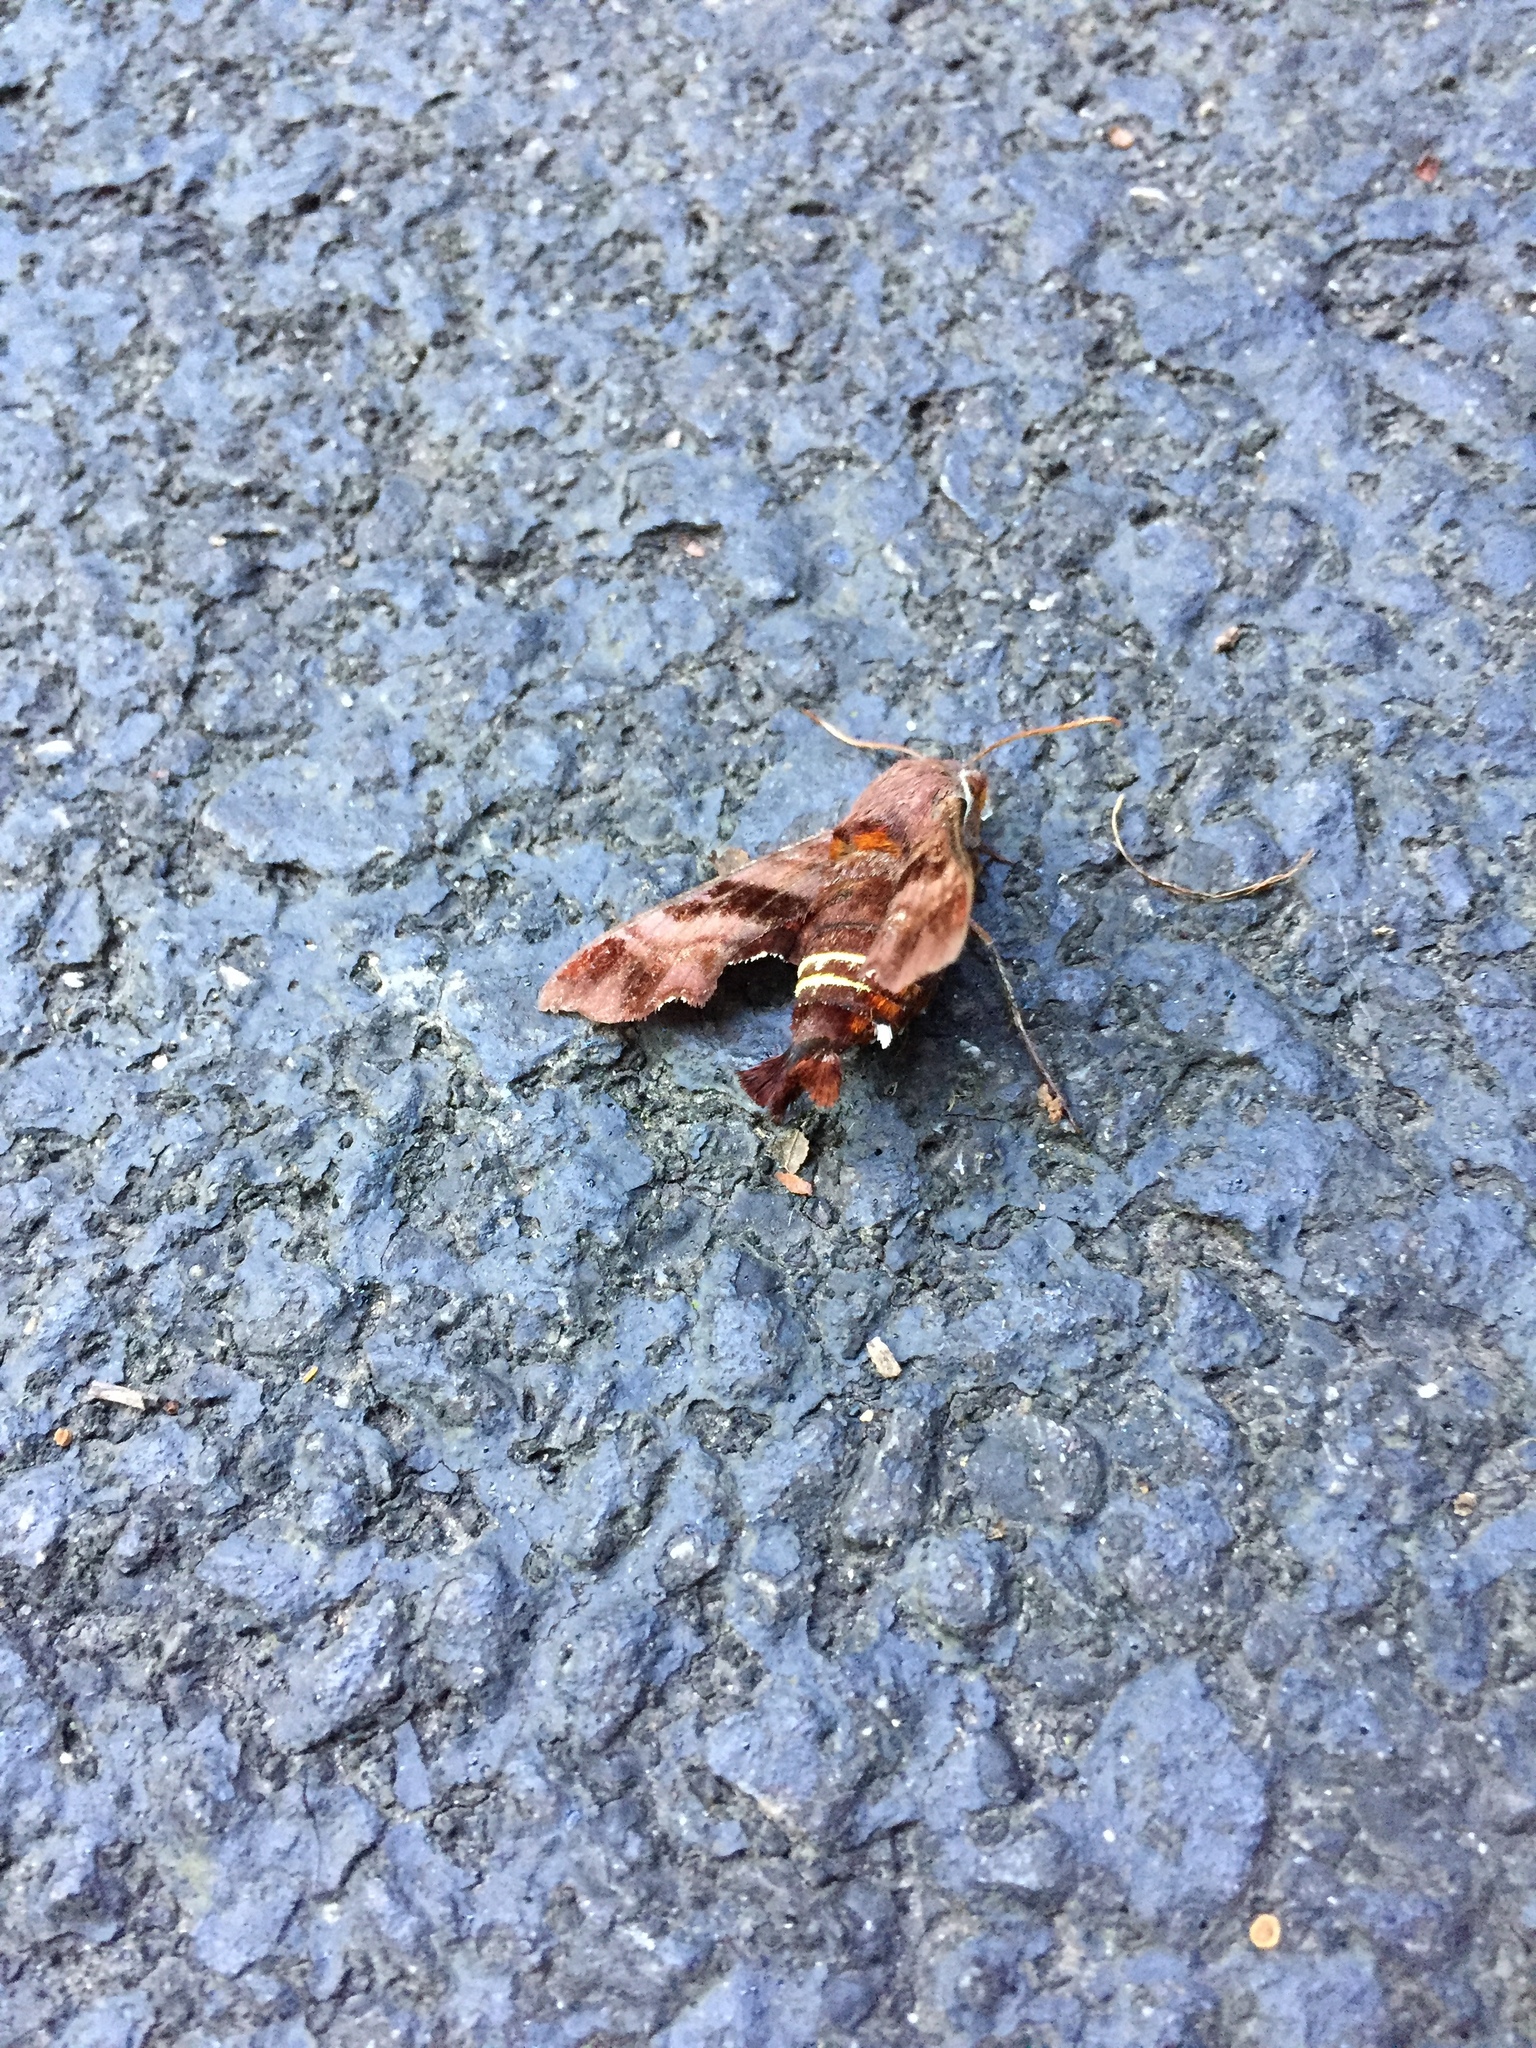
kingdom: Animalia
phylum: Arthropoda
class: Insecta
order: Lepidoptera
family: Sphingidae
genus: Amphion
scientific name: Amphion floridensis
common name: Nessus sphinx
